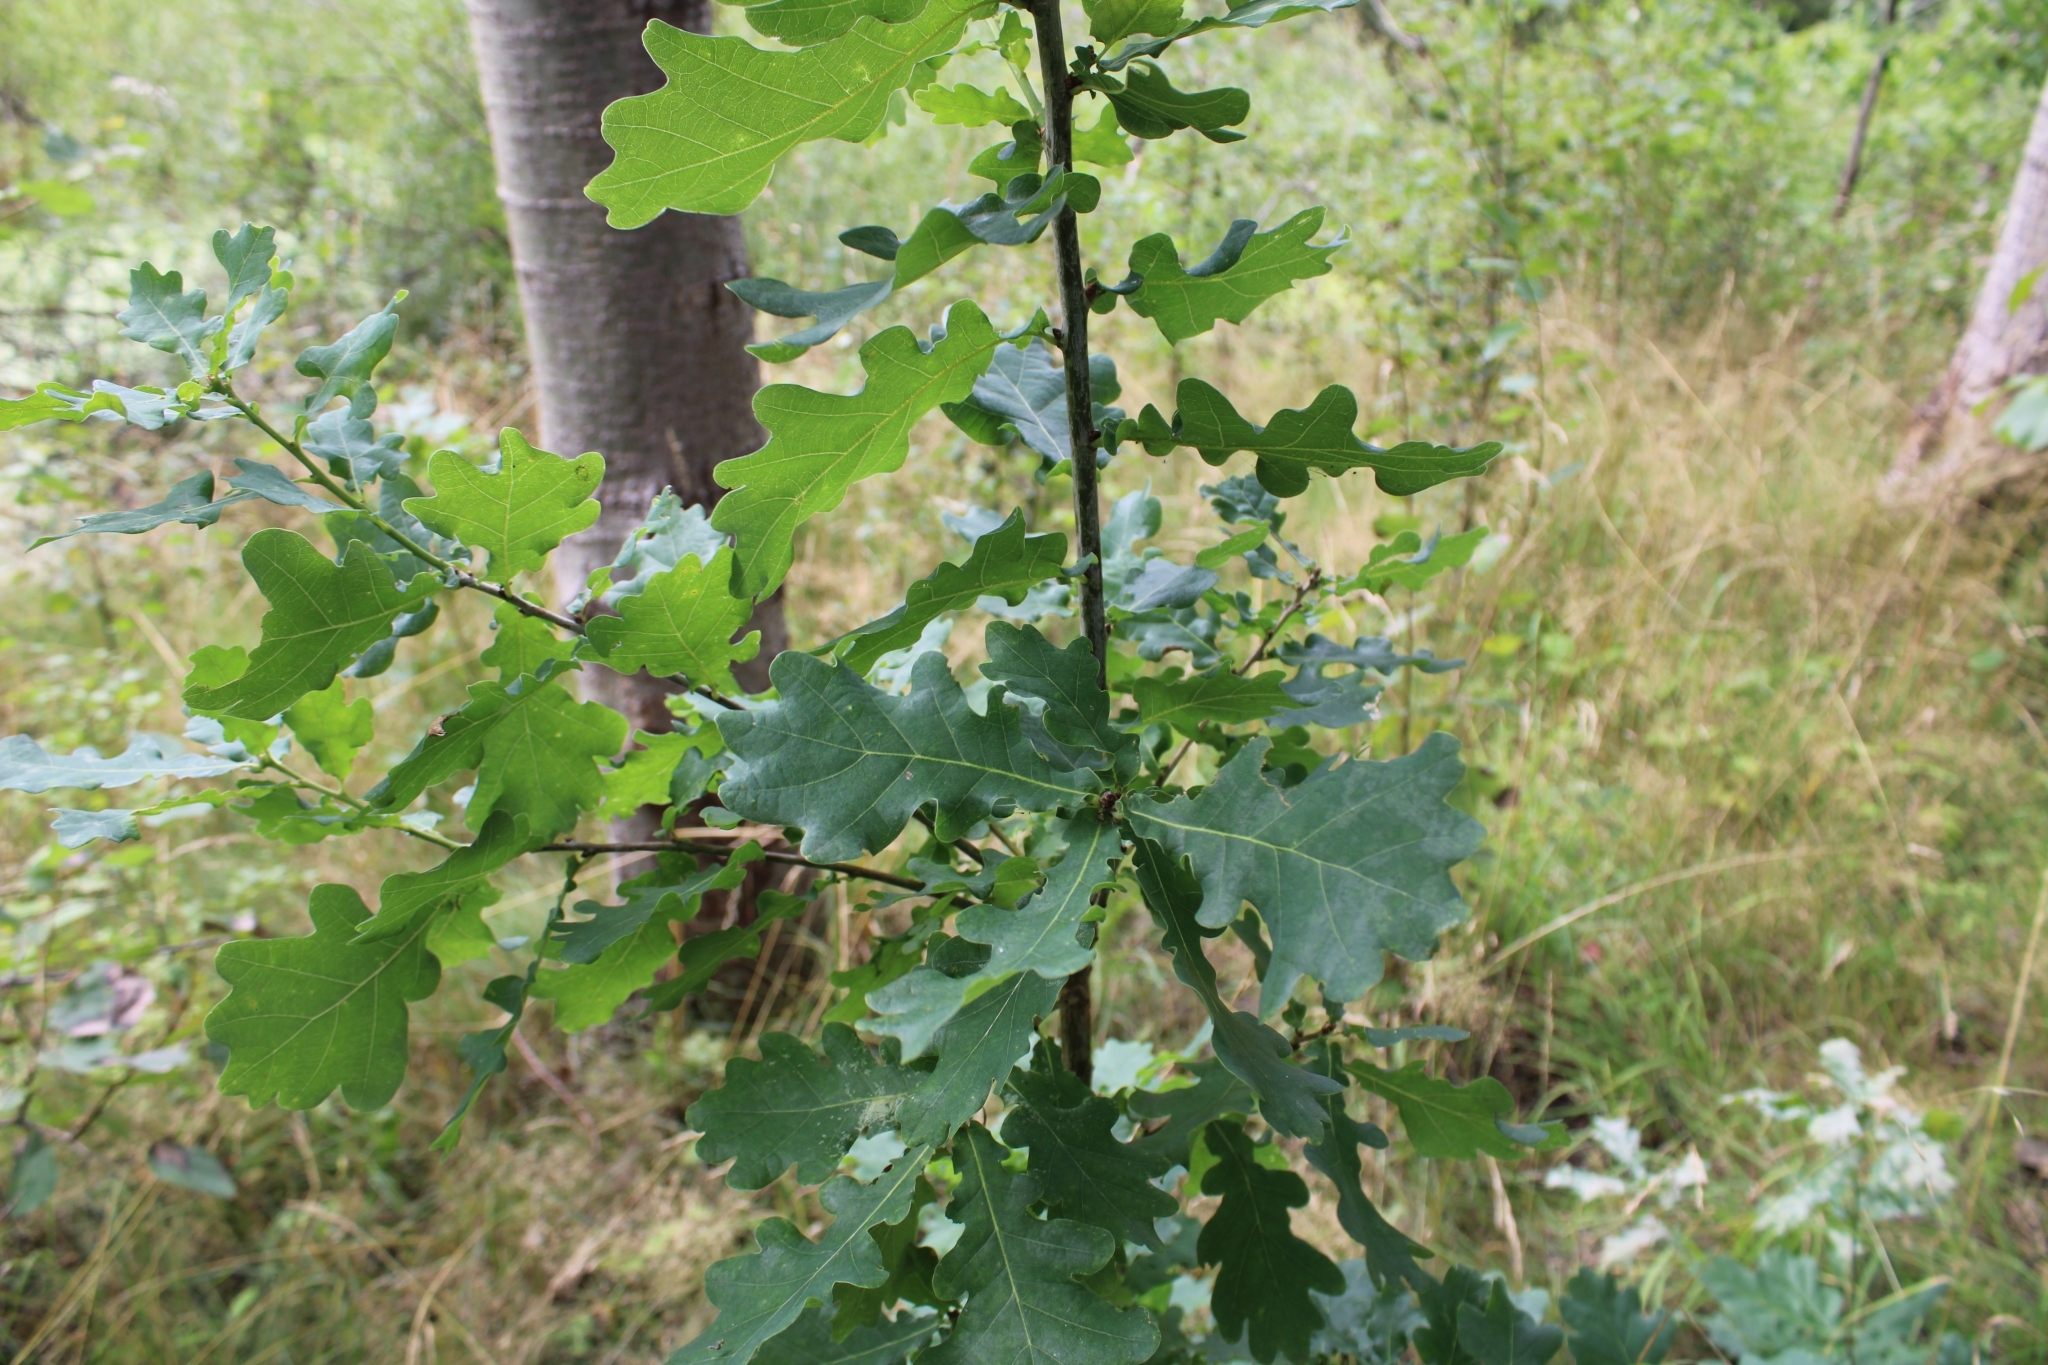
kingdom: Plantae
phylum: Tracheophyta
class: Magnoliopsida
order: Fagales
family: Fagaceae
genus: Quercus
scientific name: Quercus robur
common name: Pedunculate oak
